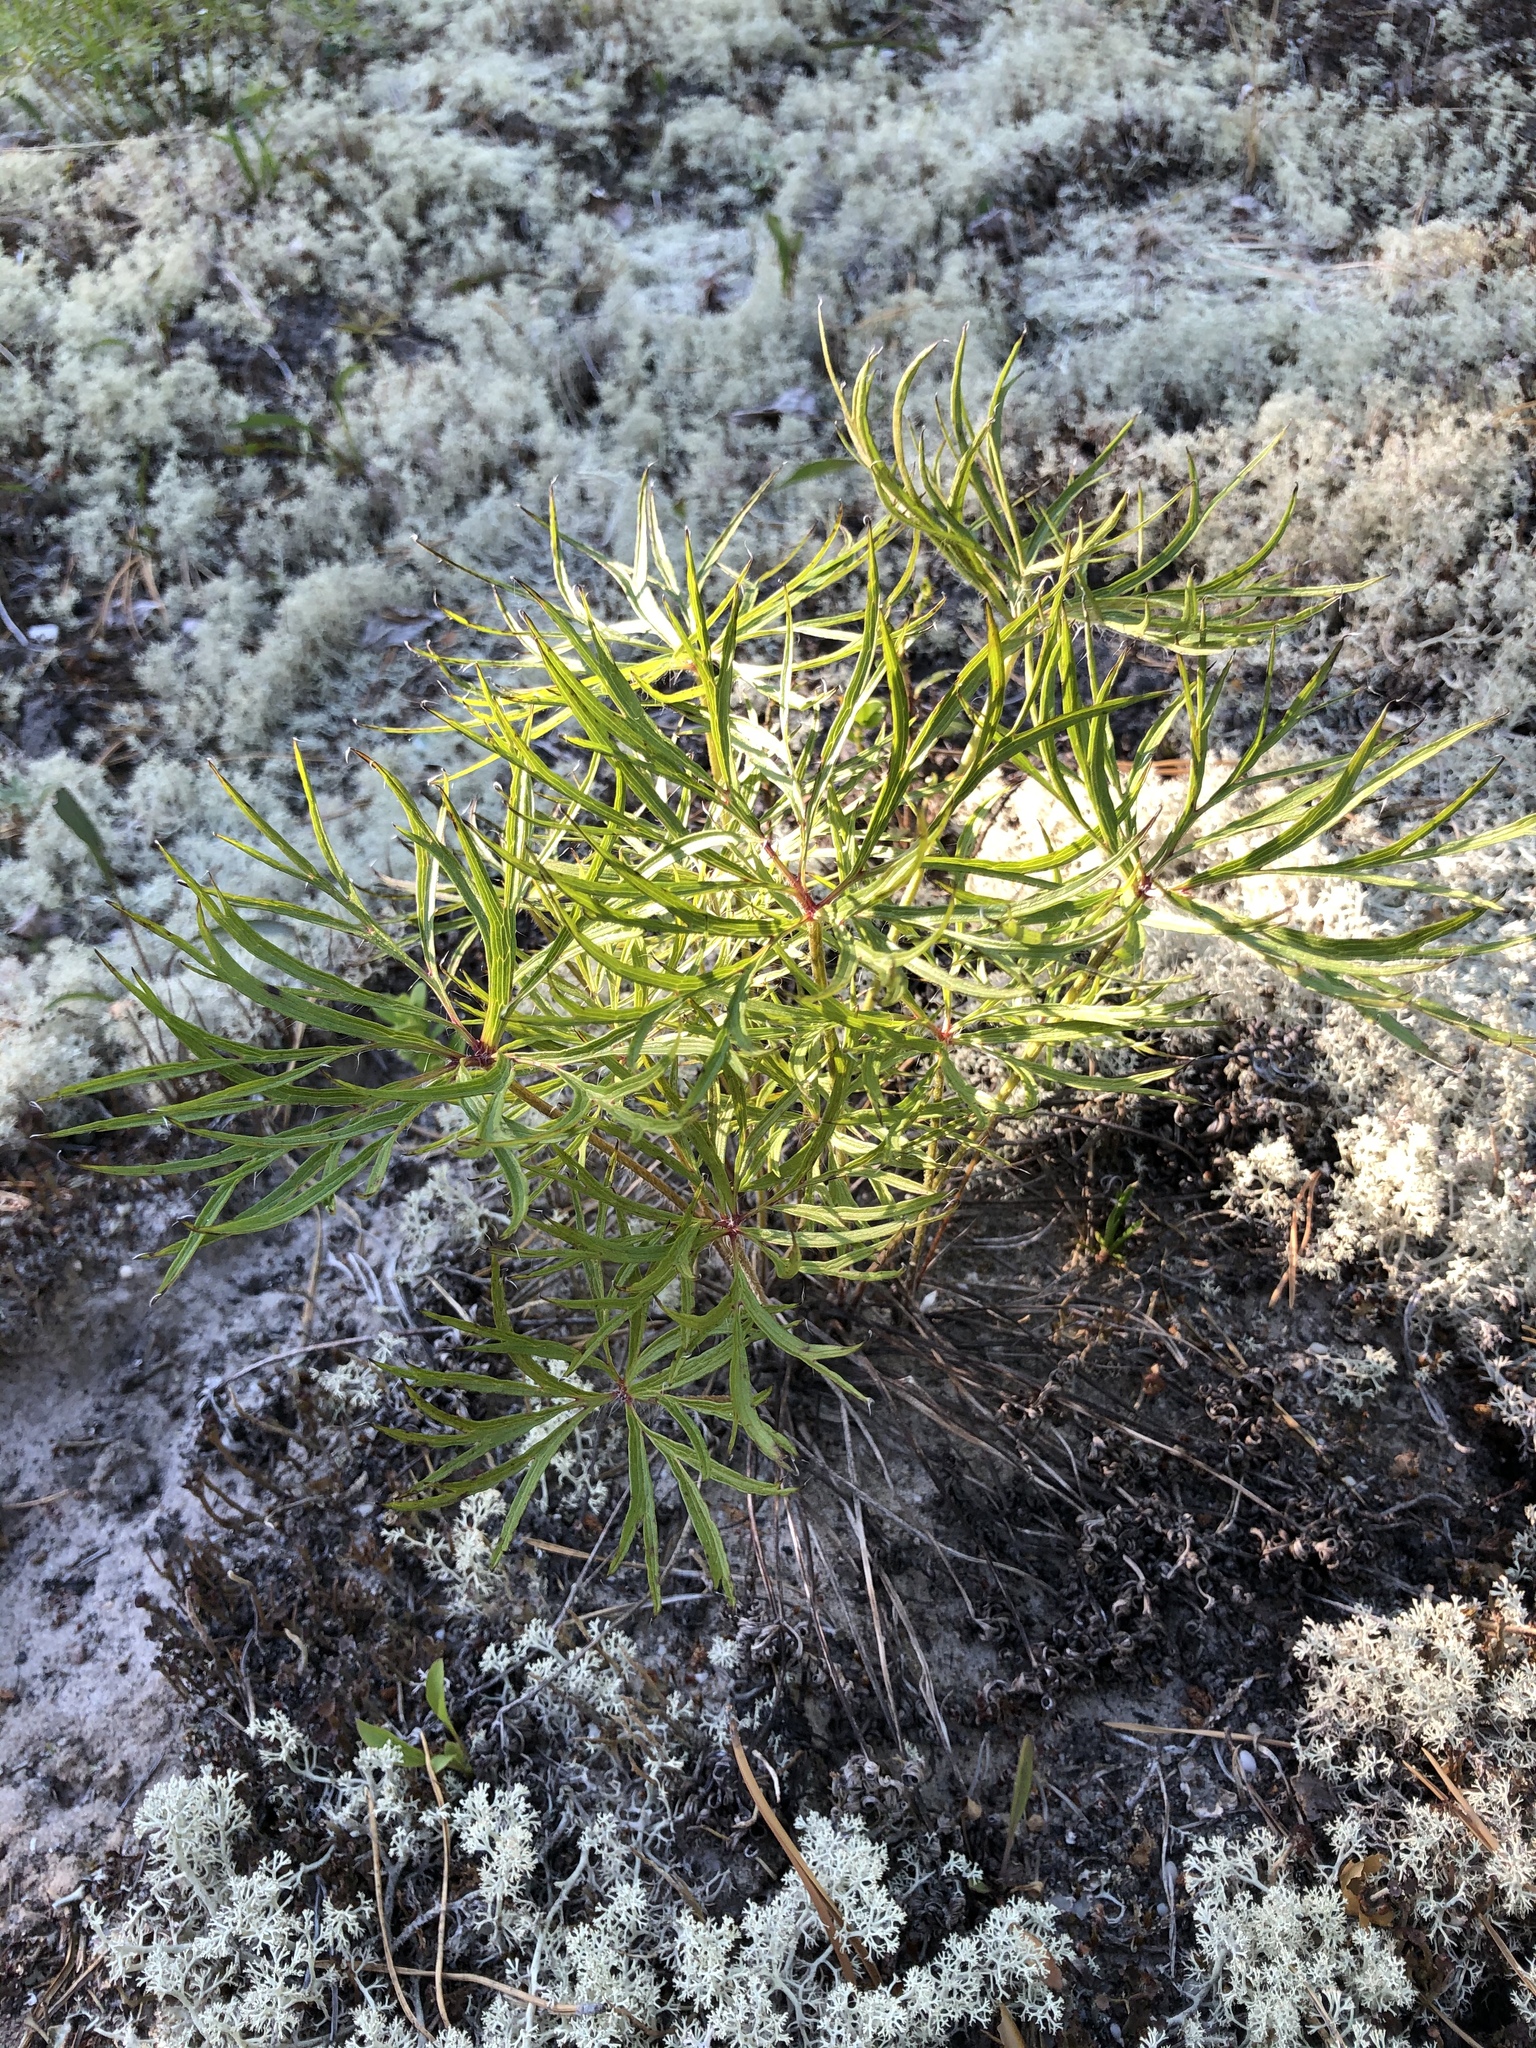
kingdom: Plantae
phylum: Tracheophyta
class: Magnoliopsida
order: Ranunculales
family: Ranunculaceae
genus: Pulsatilla
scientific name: Pulsatilla patens
